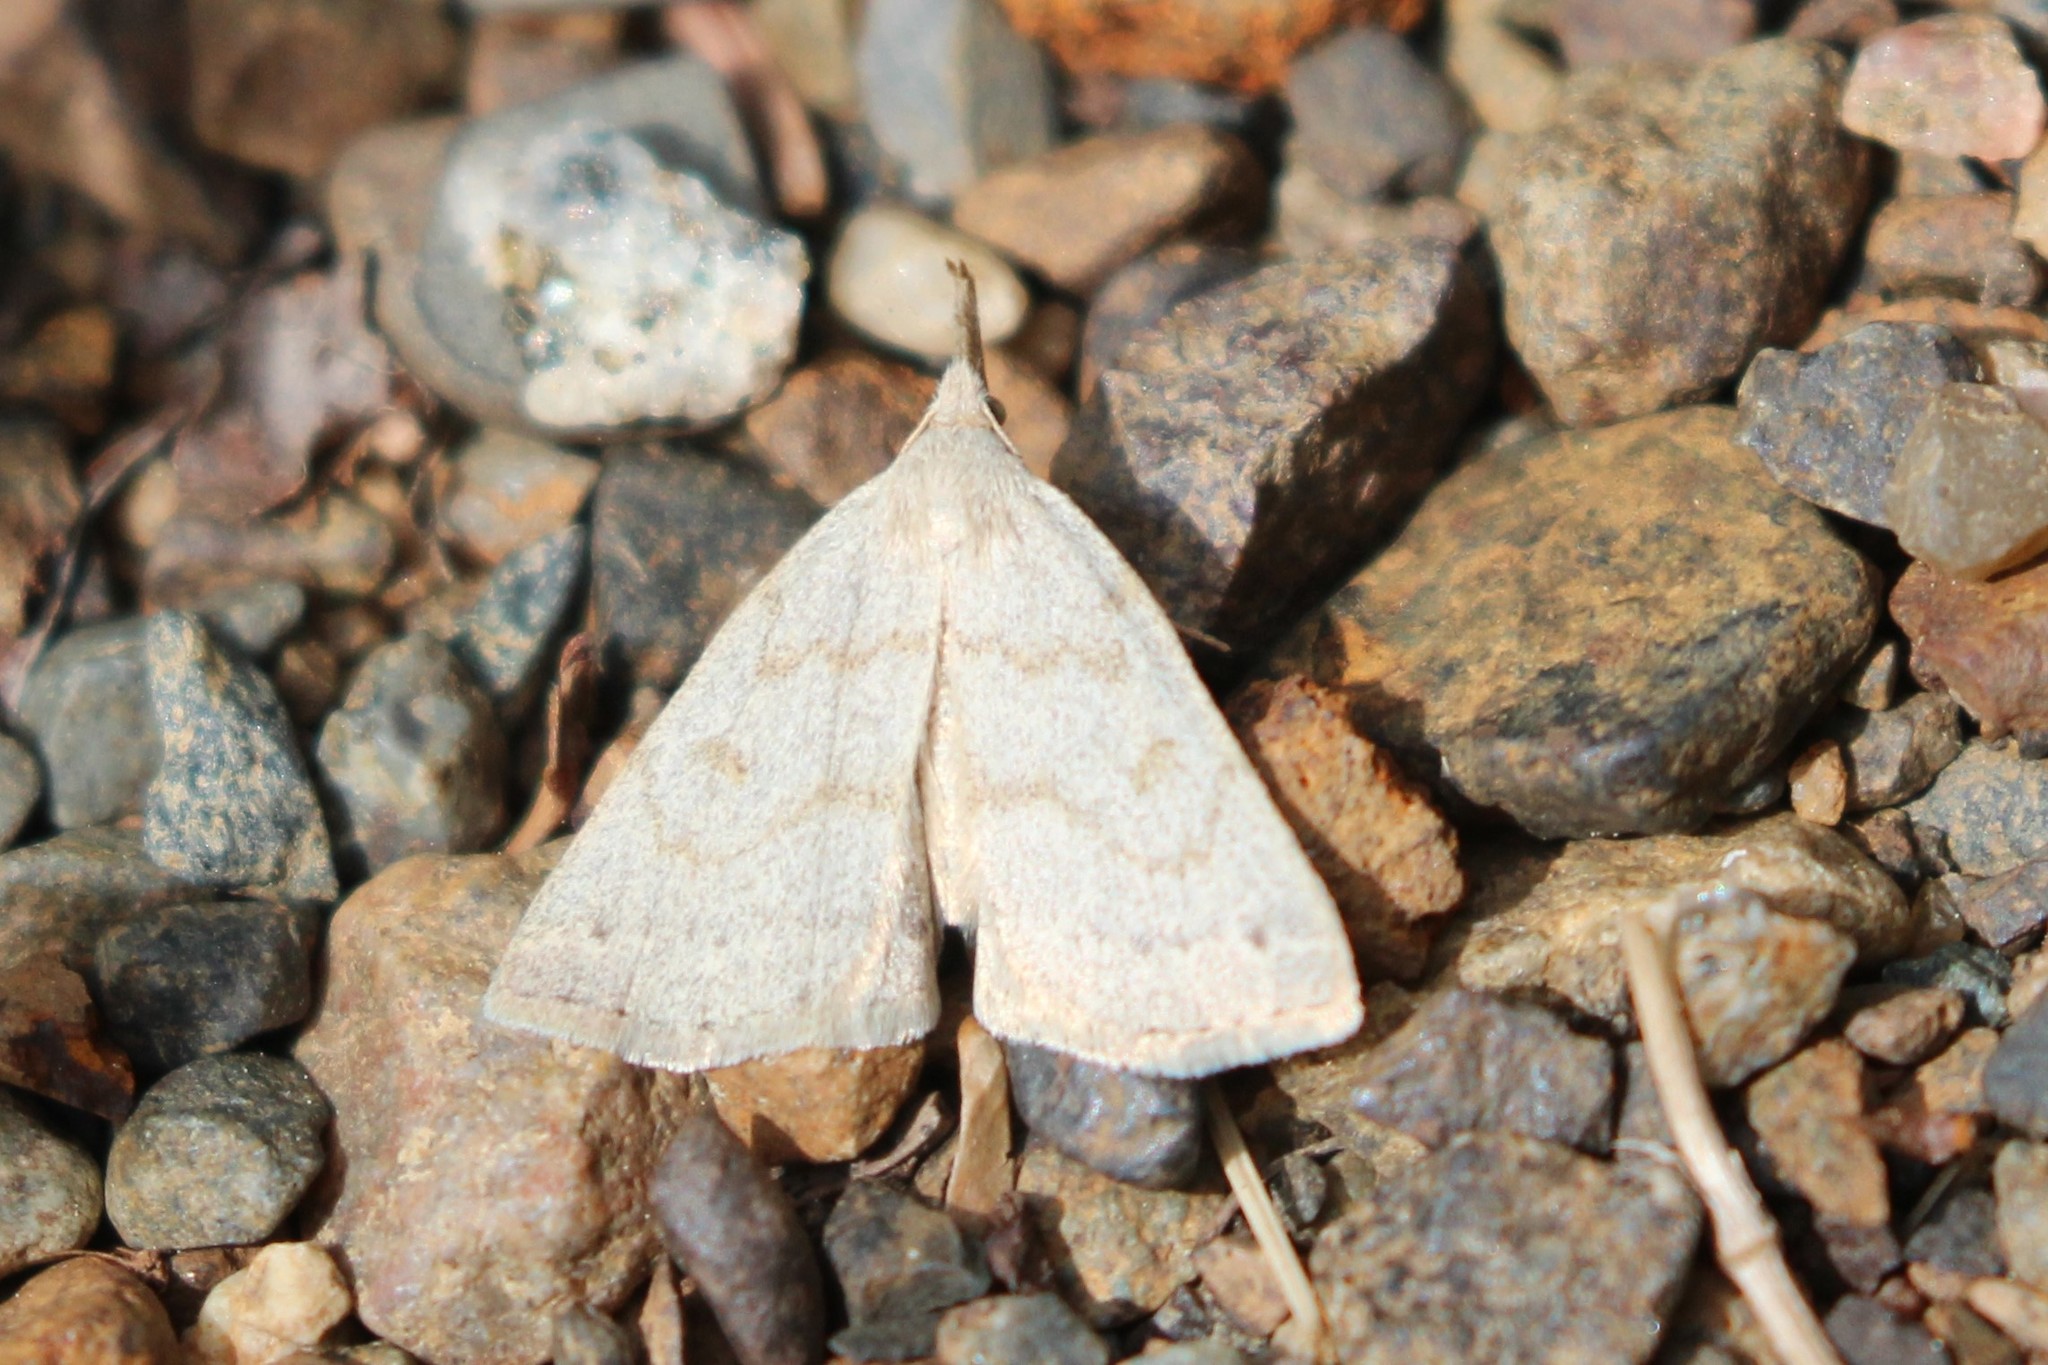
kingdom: Animalia
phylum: Arthropoda
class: Insecta
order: Lepidoptera
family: Erebidae
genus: Macrochilo
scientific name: Macrochilo morbidalis
